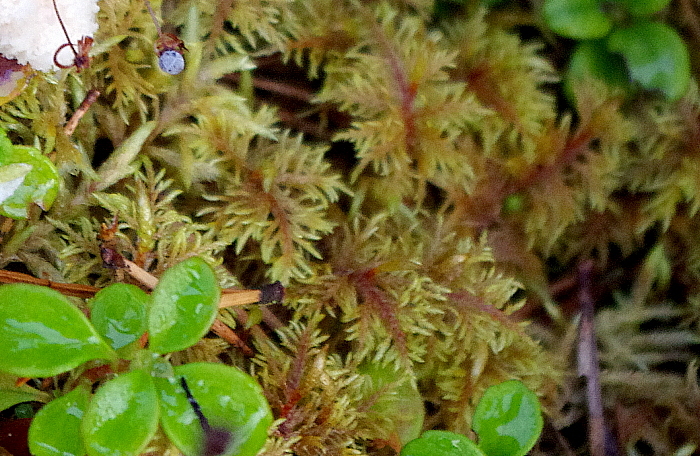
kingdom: Plantae
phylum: Bryophyta
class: Bryopsida
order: Hypnales
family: Hylocomiaceae
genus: Hylocomium
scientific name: Hylocomium splendens
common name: Stairstep moss
